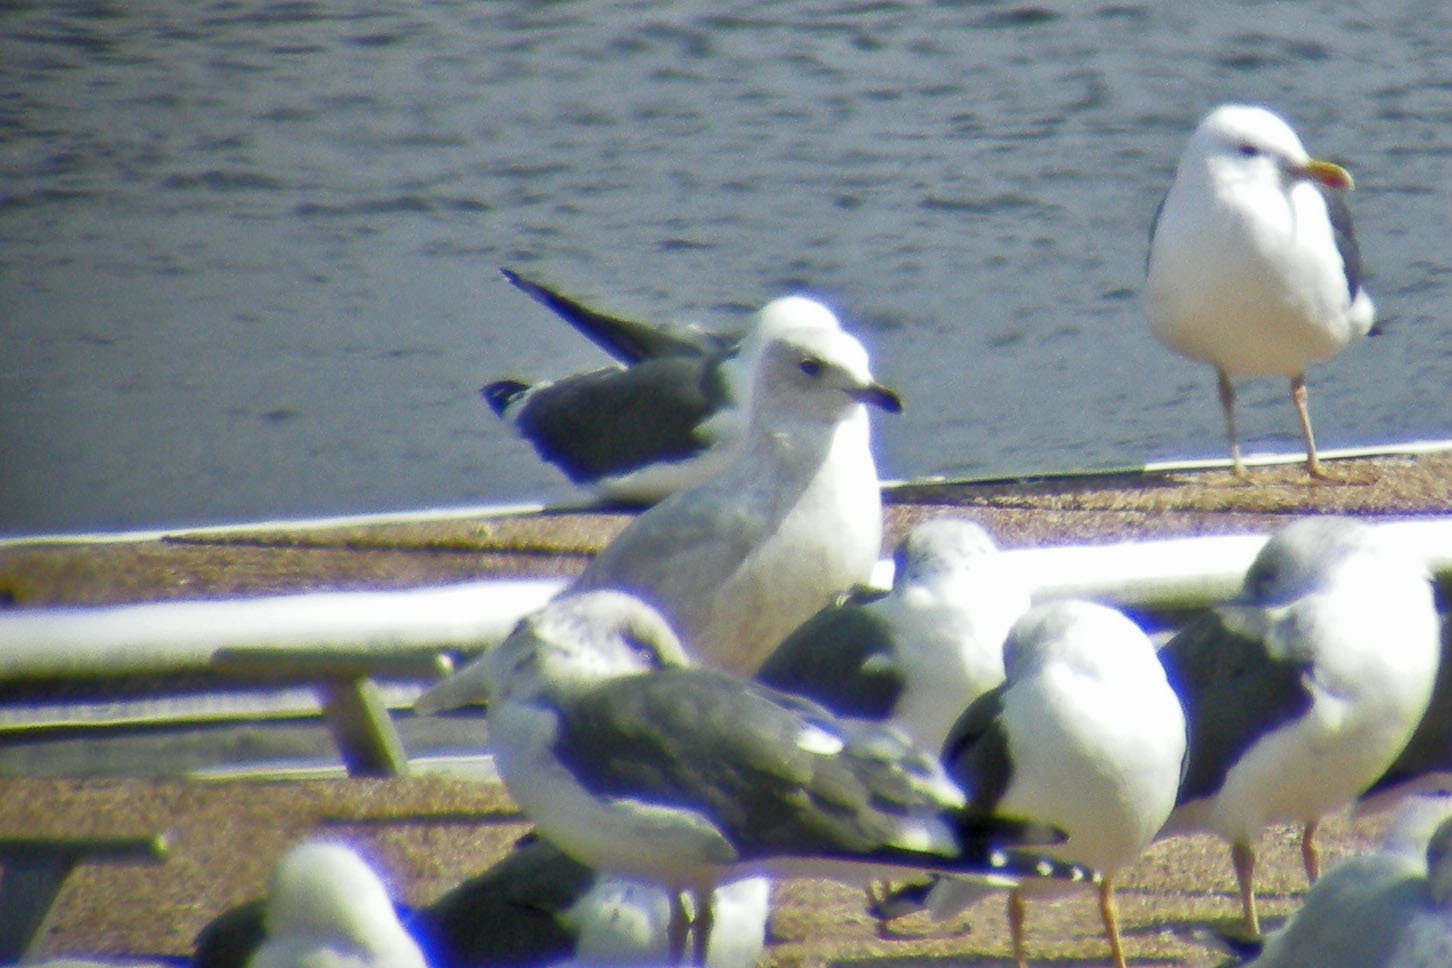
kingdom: Animalia
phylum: Chordata
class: Aves
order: Charadriiformes
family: Laridae
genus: Larus
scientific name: Larus glaucoides
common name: Iceland gull
